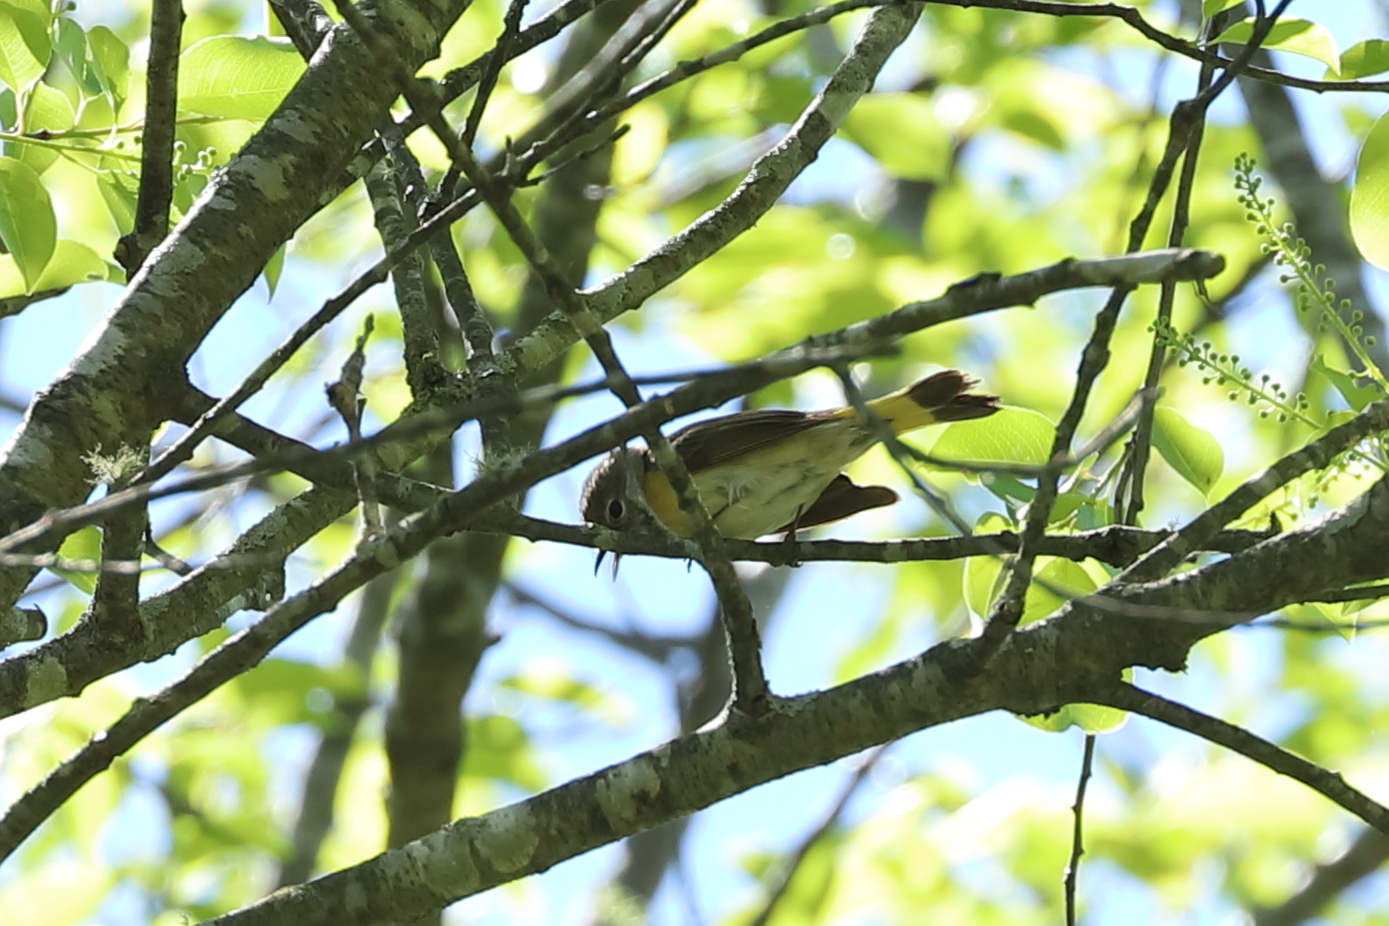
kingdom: Animalia
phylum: Chordata
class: Aves
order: Passeriformes
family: Parulidae
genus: Setophaga
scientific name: Setophaga ruticilla
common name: American redstart
